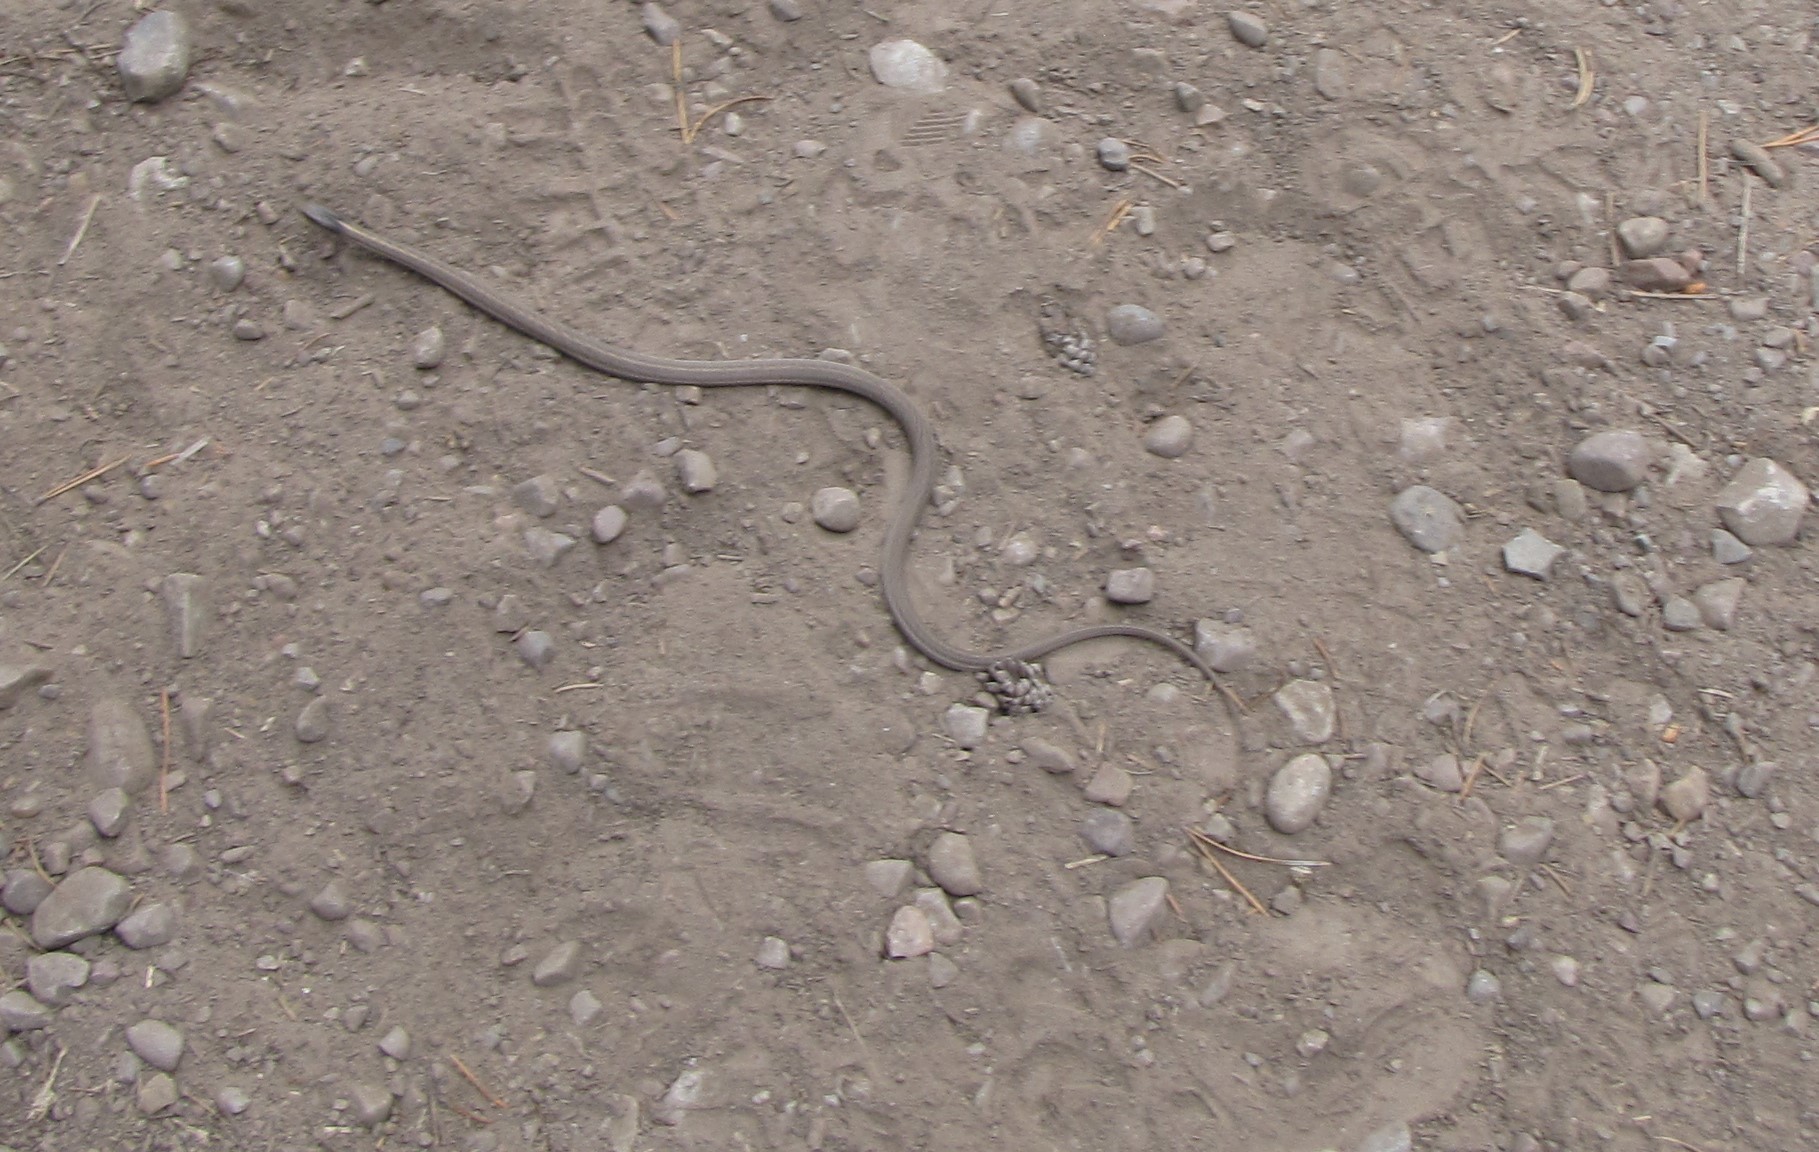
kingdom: Animalia
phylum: Chordata
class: Squamata
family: Colubridae
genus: Thamnophis
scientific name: Thamnophis elegans
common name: Western terrestrial garter snake
